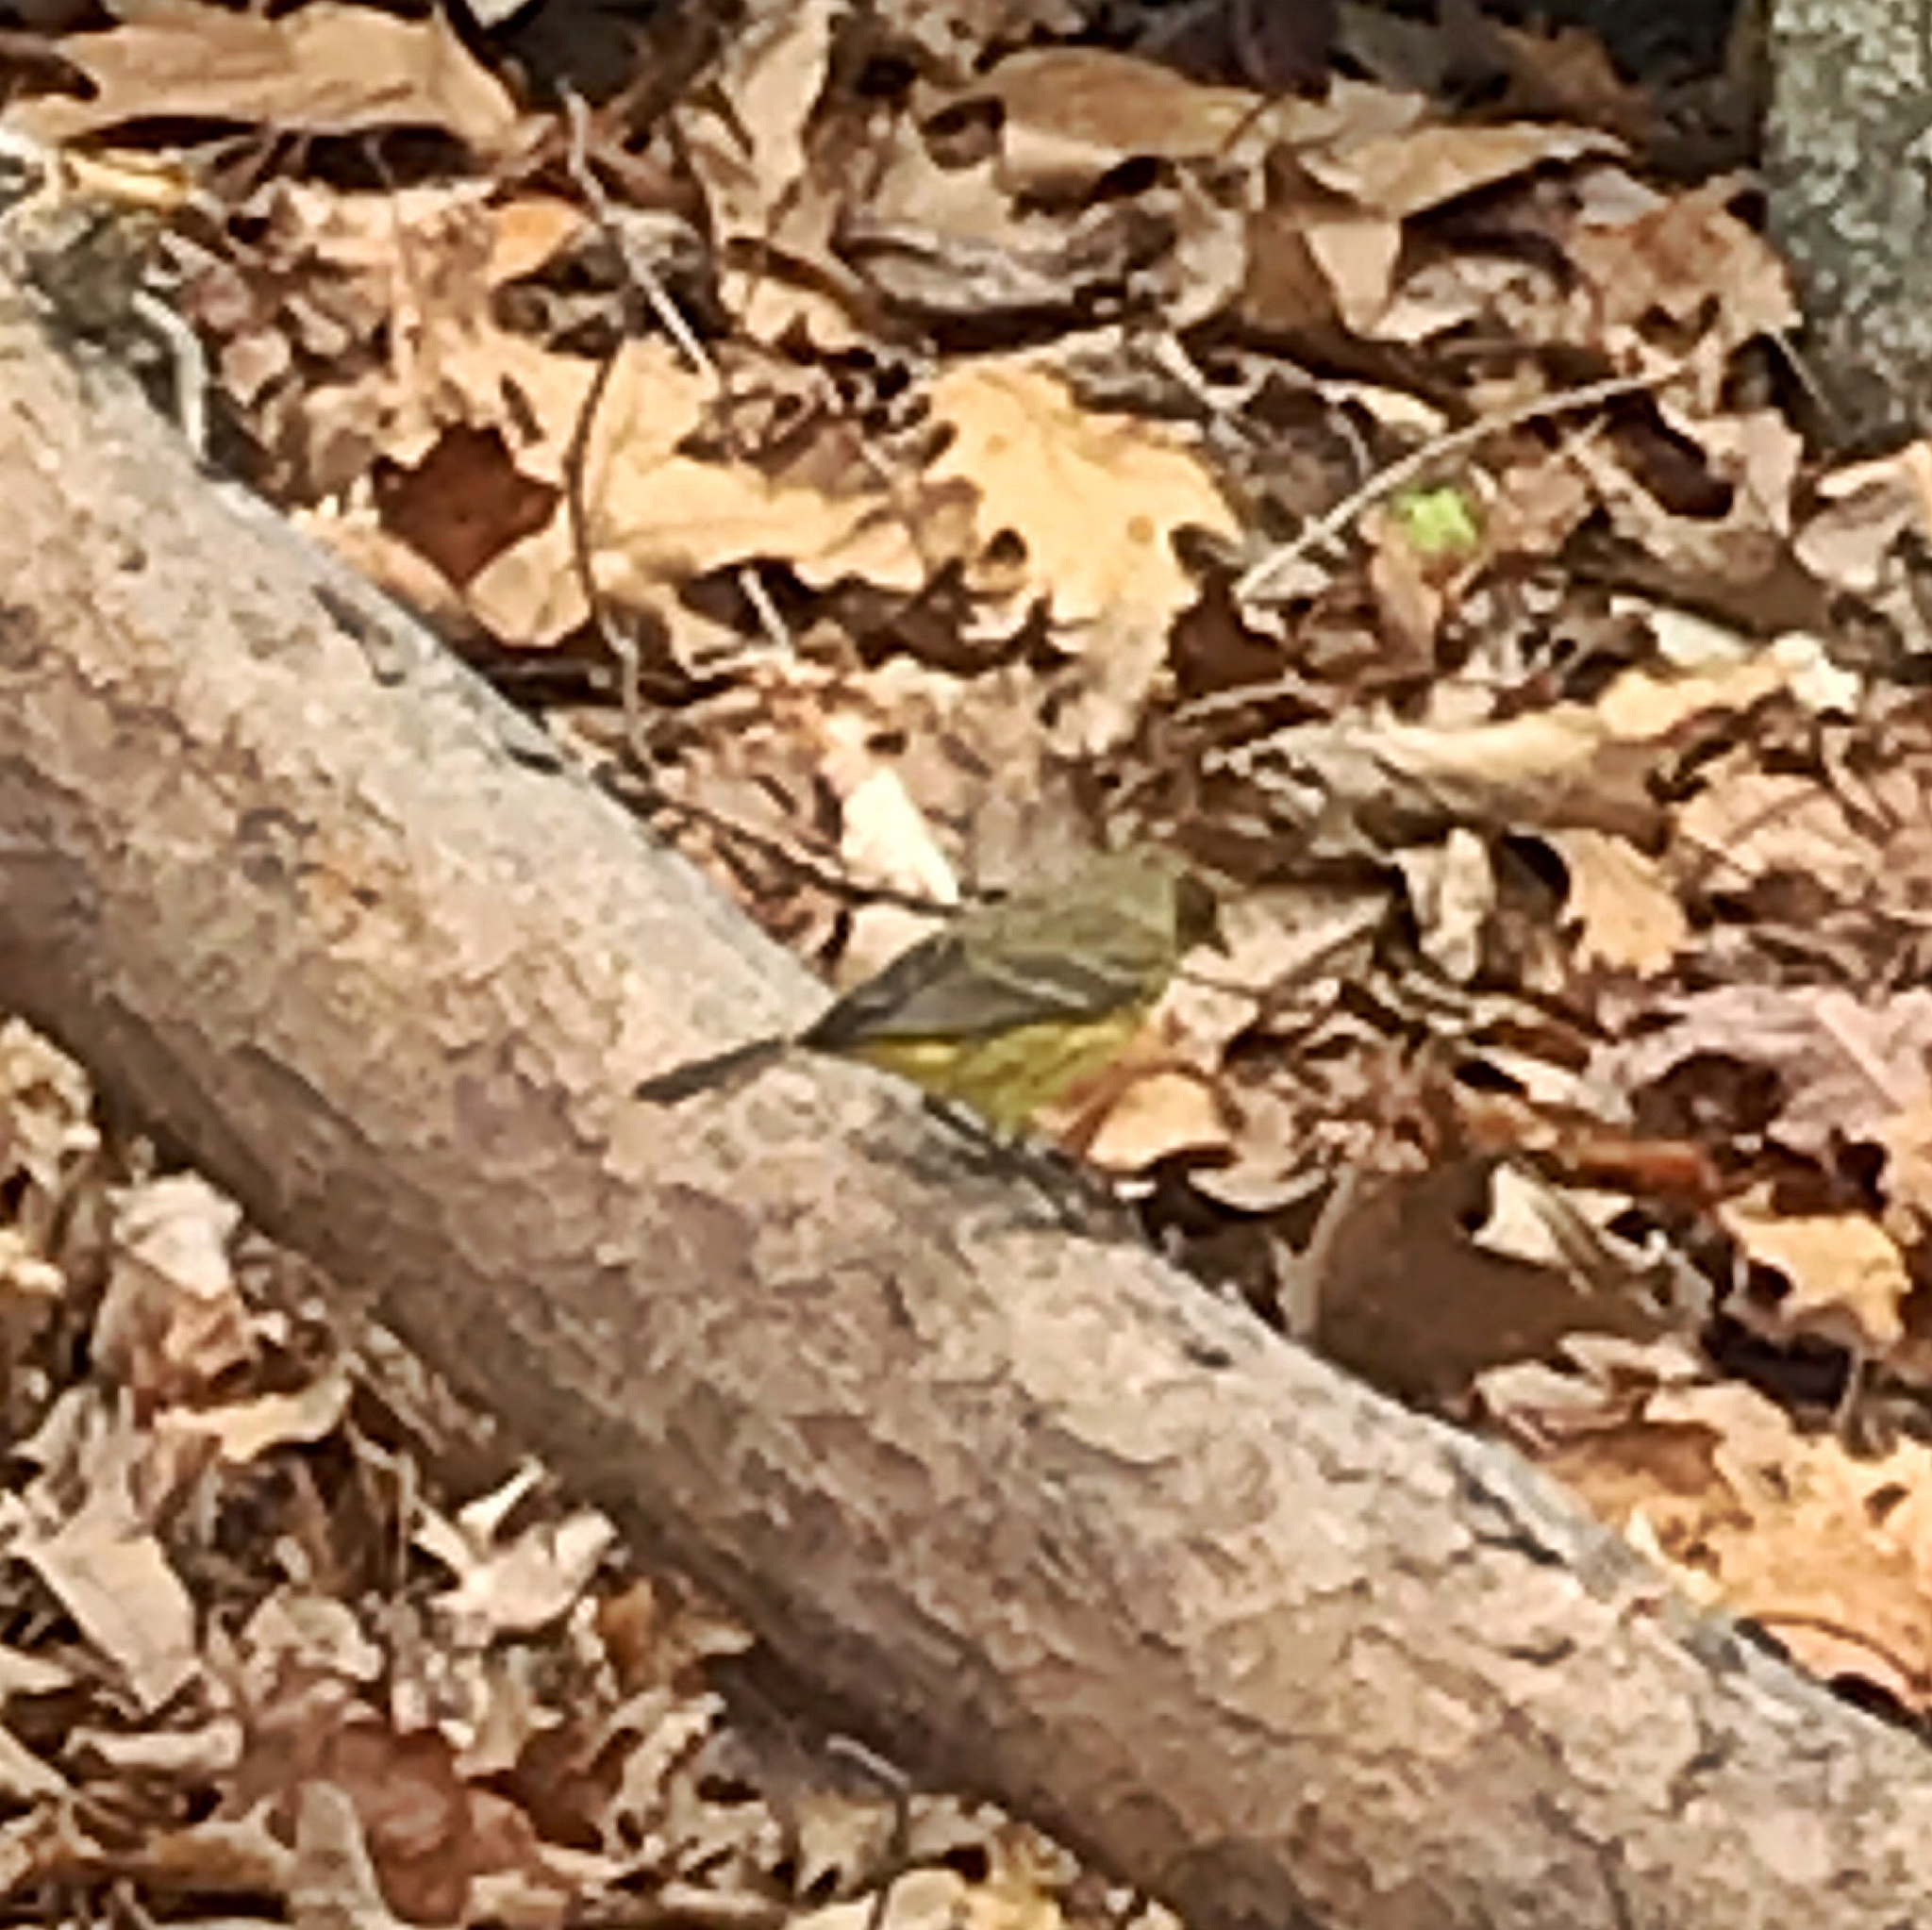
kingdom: Animalia
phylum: Chordata
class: Aves
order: Passeriformes
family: Parulidae
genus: Setophaga
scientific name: Setophaga palmarum
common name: Palm warbler
